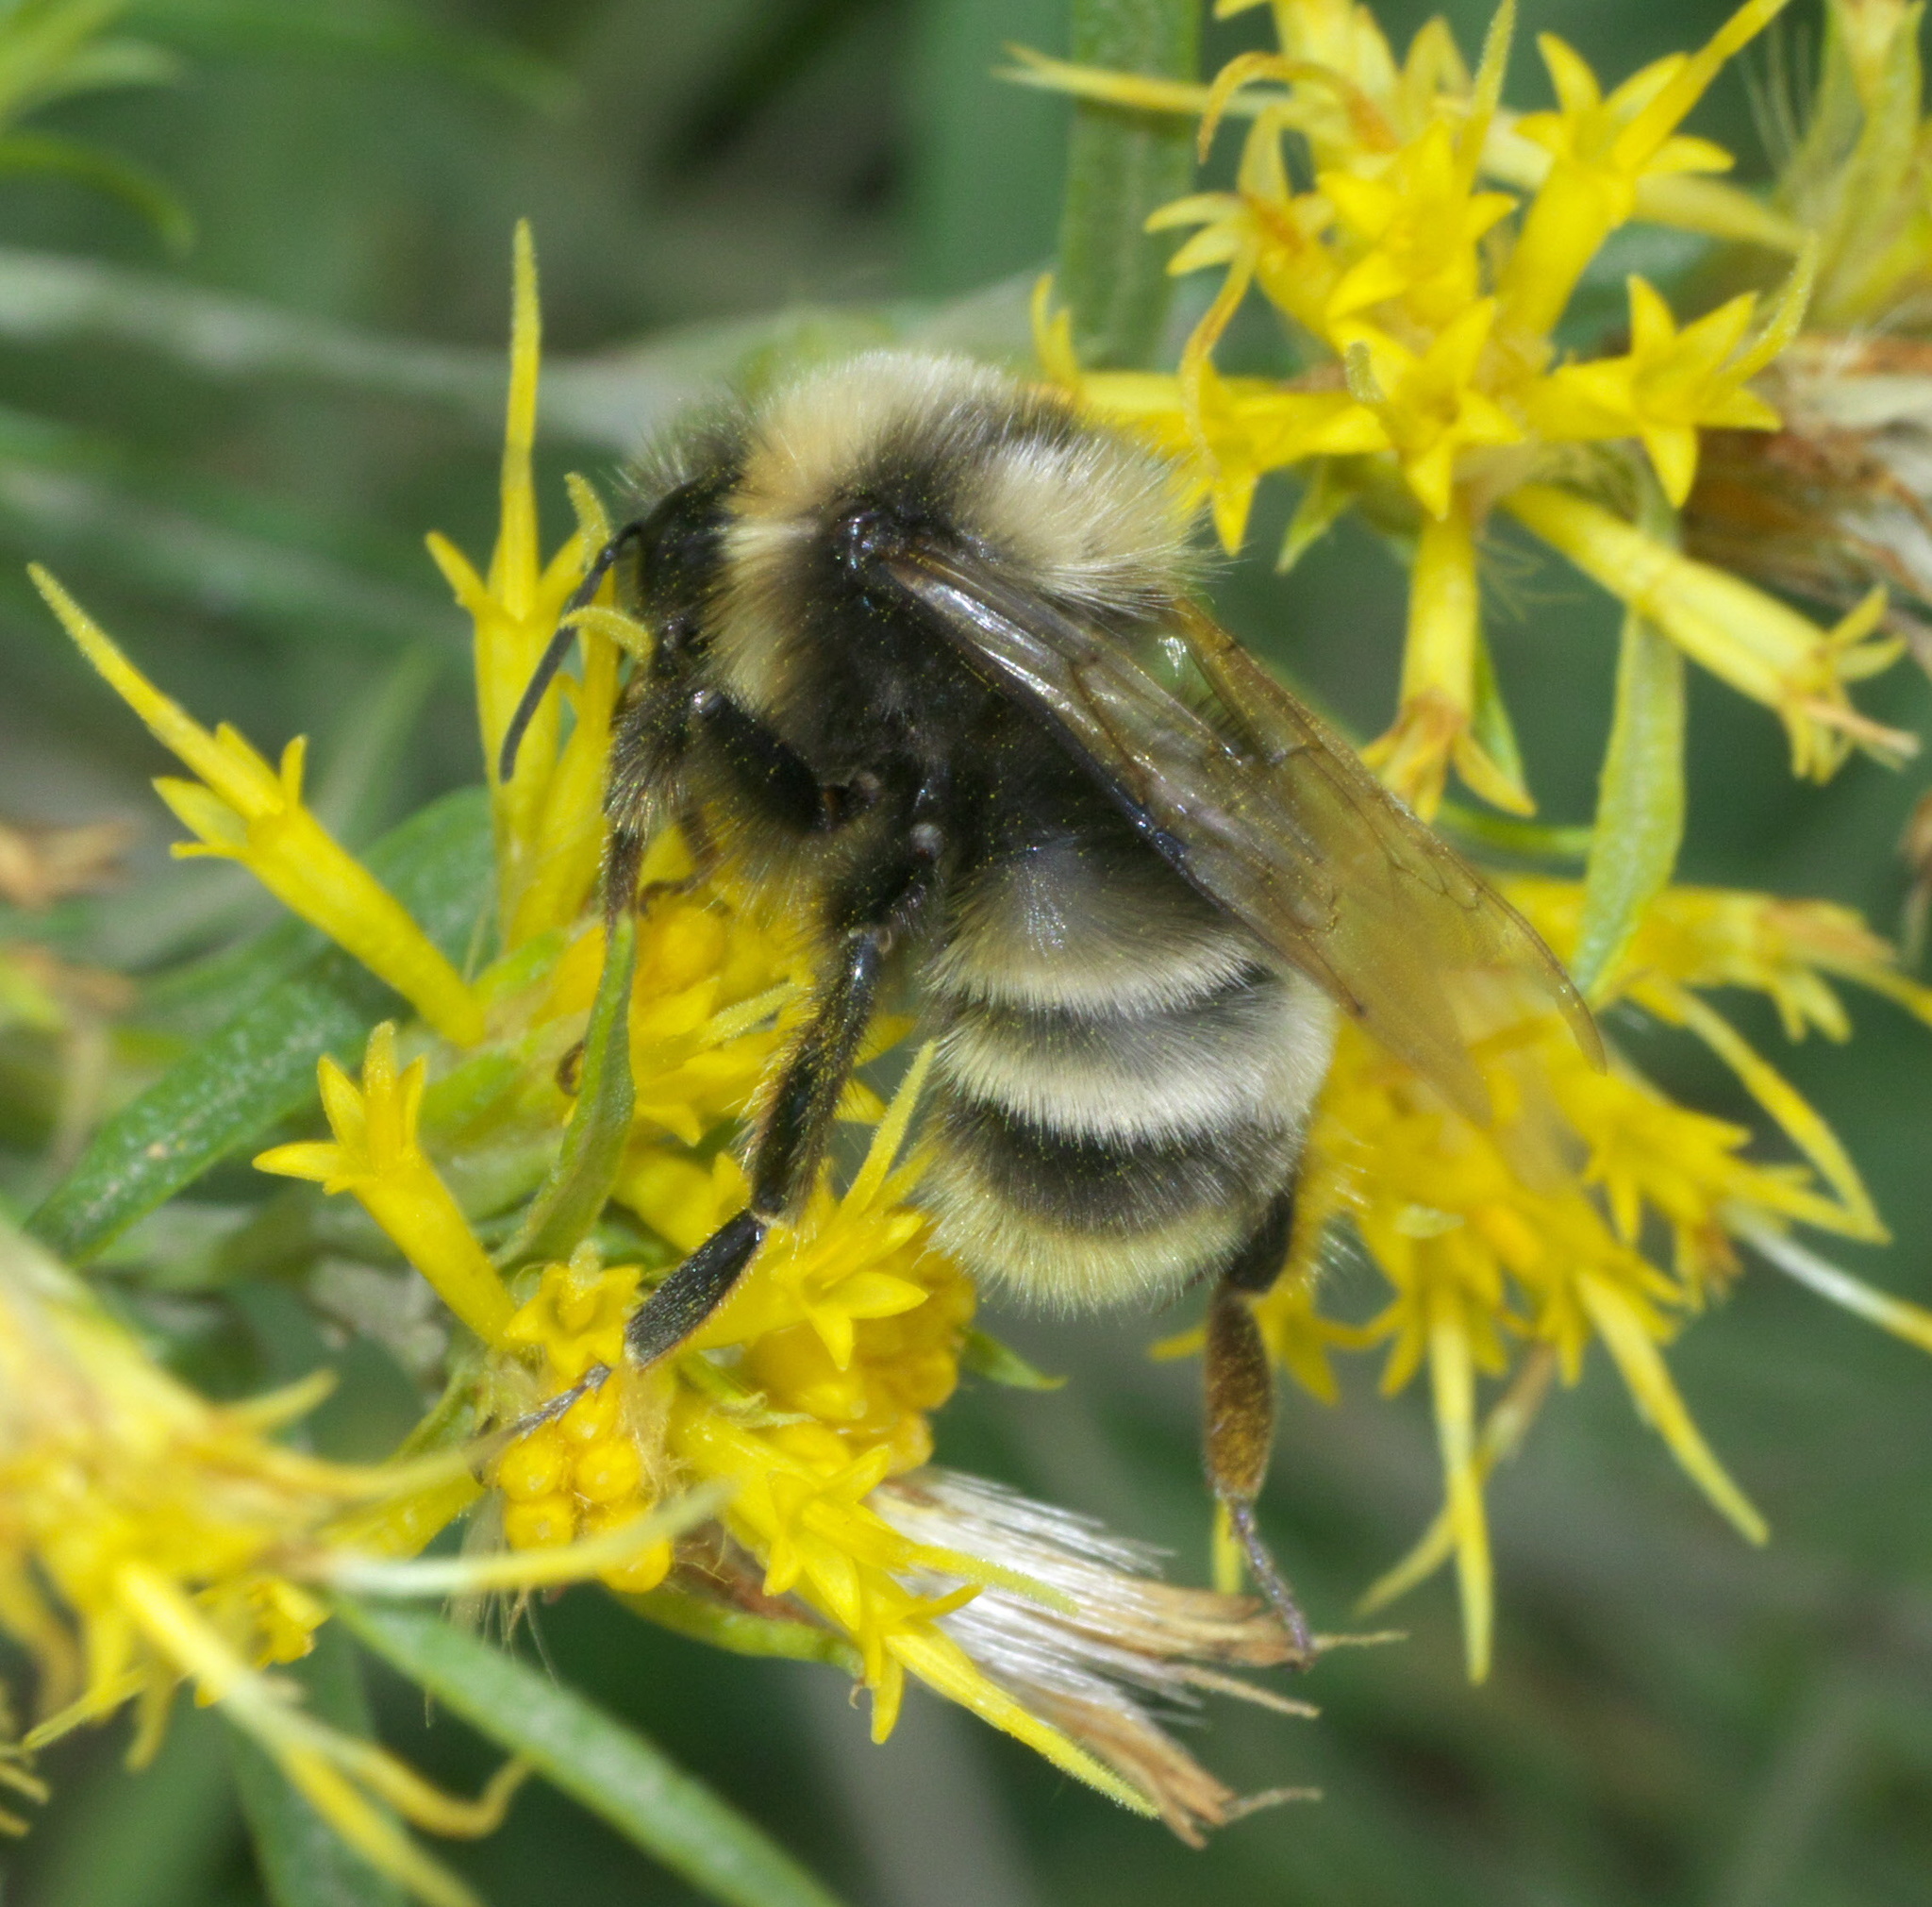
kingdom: Animalia
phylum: Arthropoda
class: Insecta
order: Hymenoptera
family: Apidae
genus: Bombus
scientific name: Bombus occidentalis
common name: Western bumble bee
